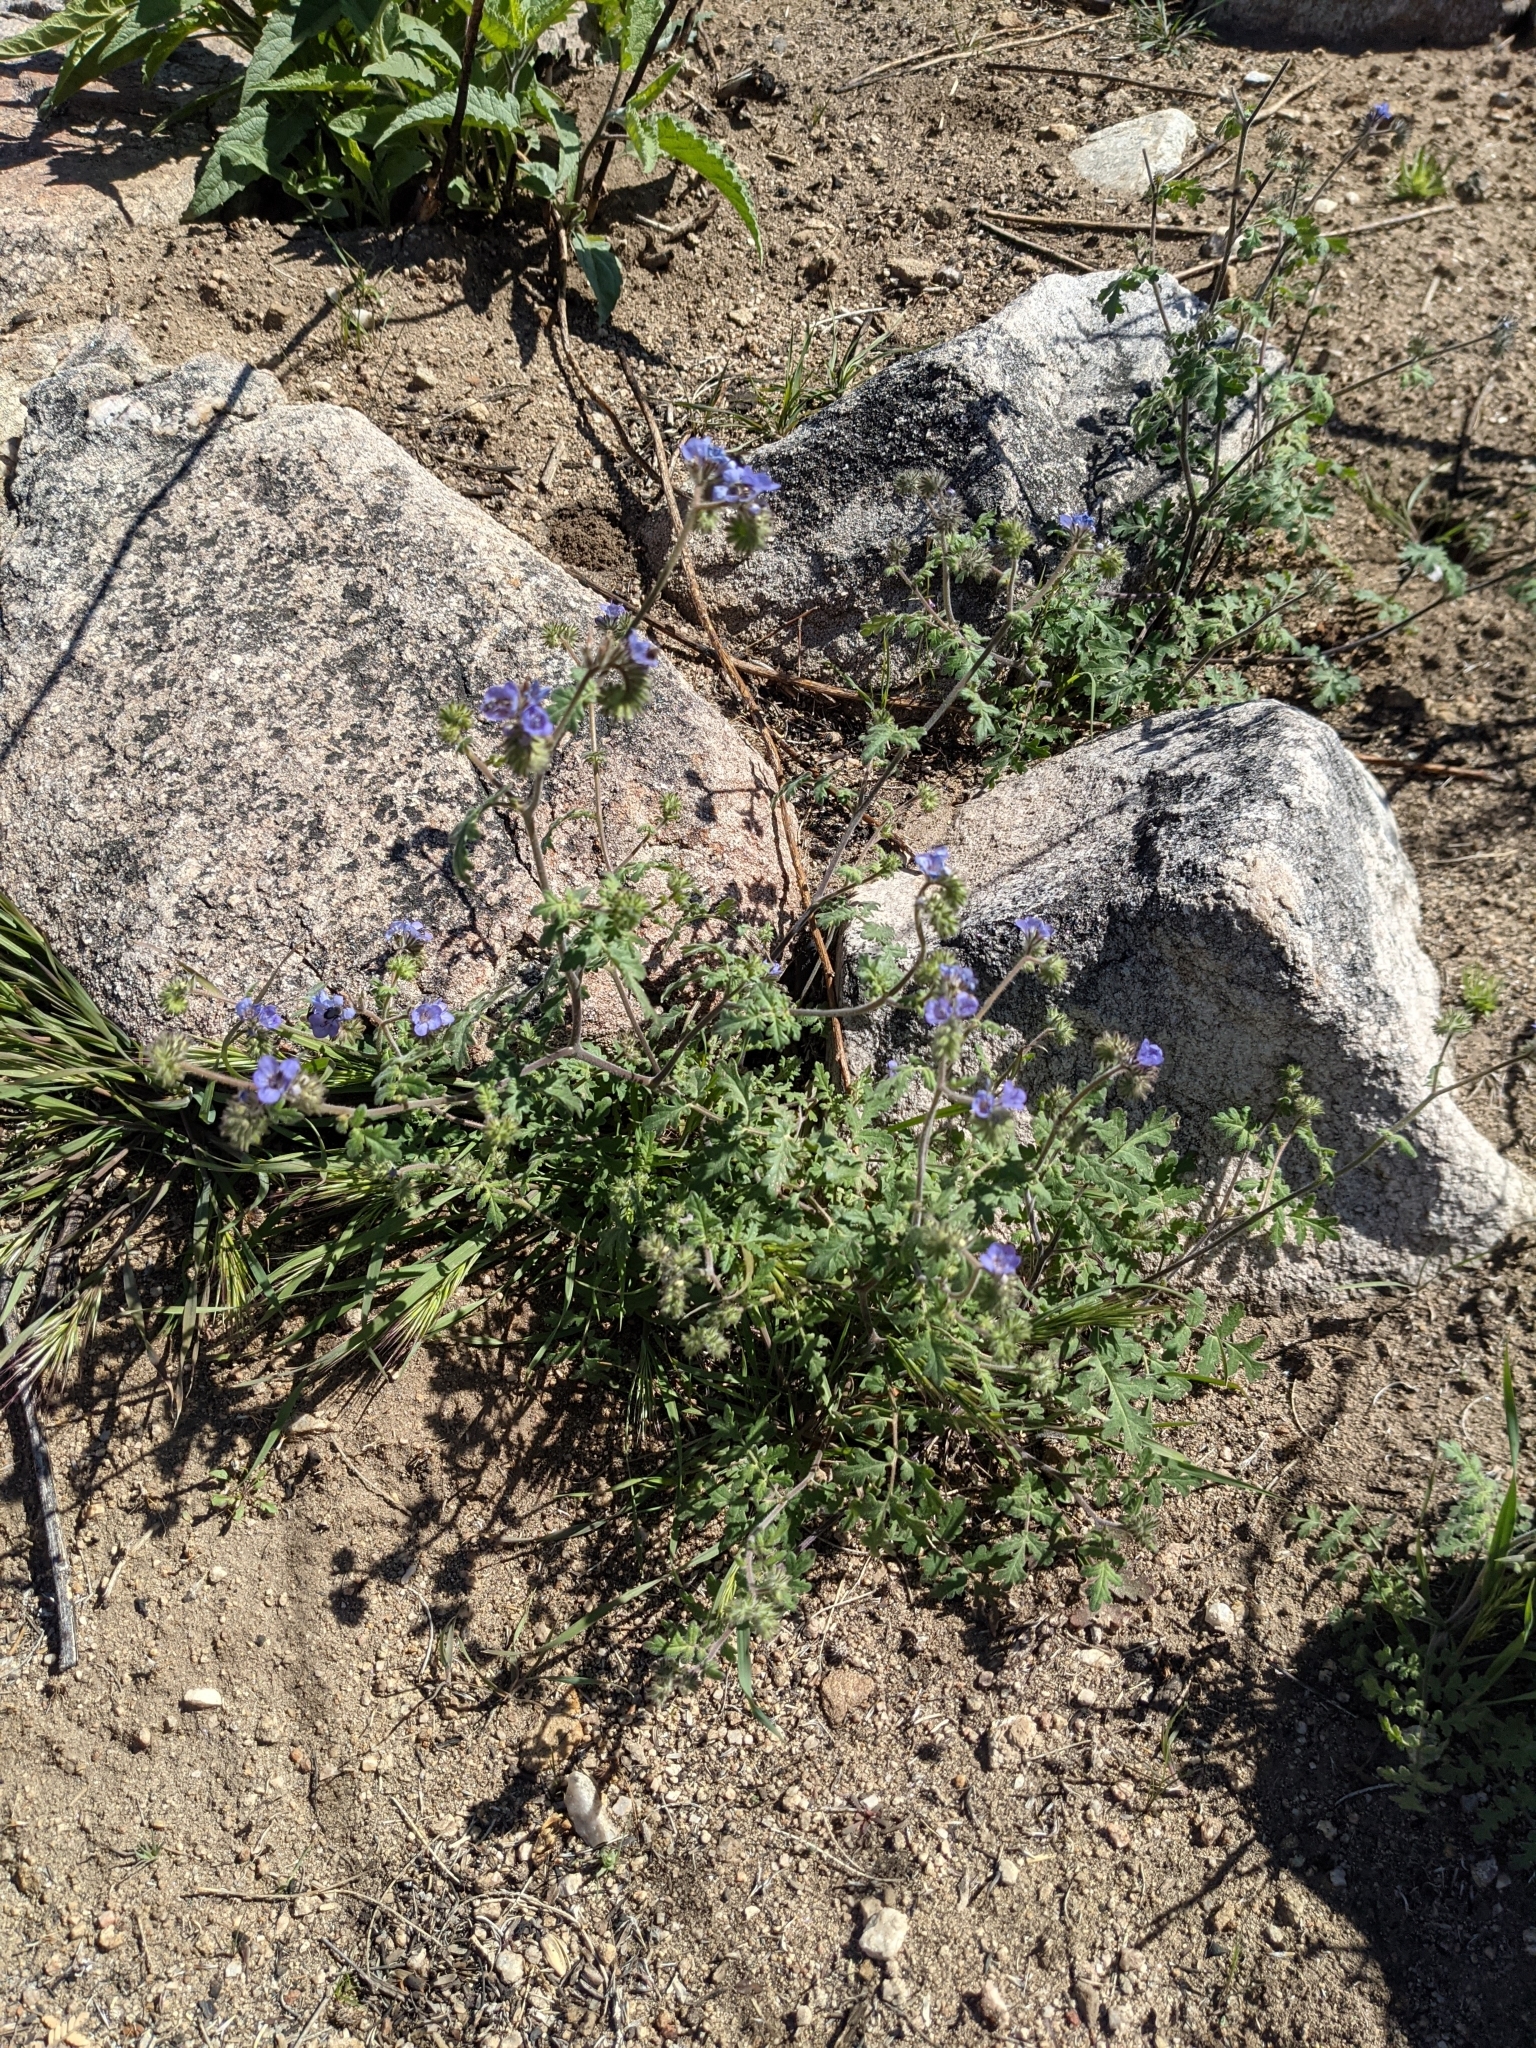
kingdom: Plantae
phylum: Tracheophyta
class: Magnoliopsida
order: Boraginales
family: Hydrophyllaceae
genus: Phacelia
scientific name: Phacelia distans
